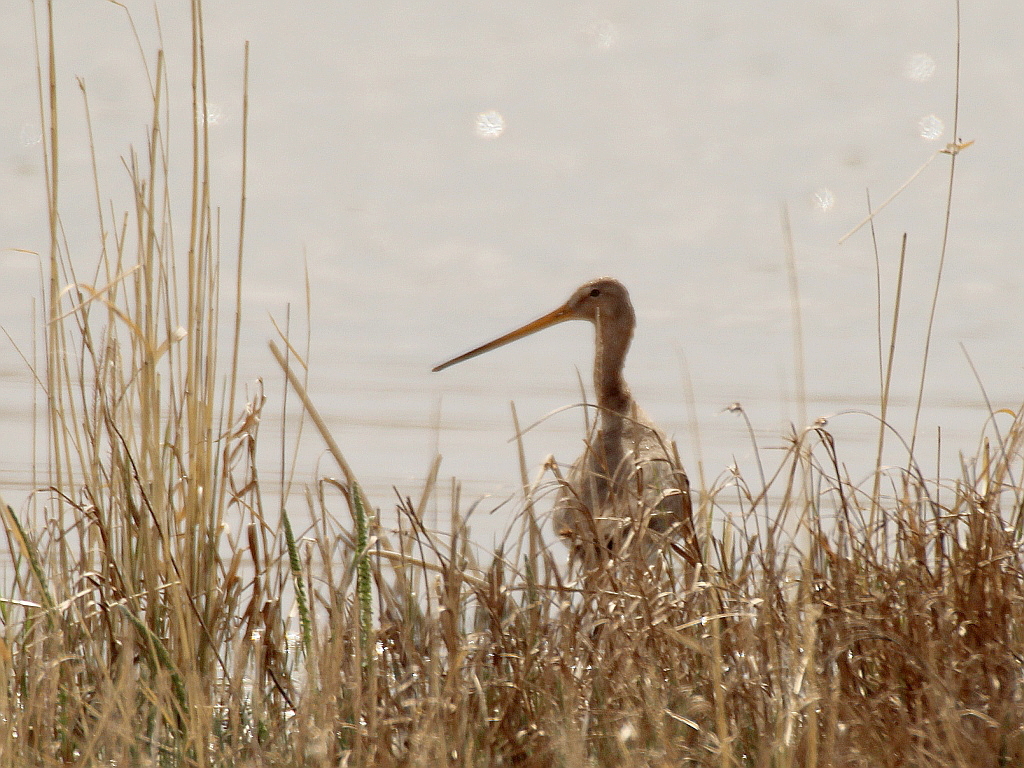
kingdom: Animalia
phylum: Chordata
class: Aves
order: Charadriiformes
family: Scolopacidae
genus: Limosa
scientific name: Limosa limosa
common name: Black-tailed godwit
